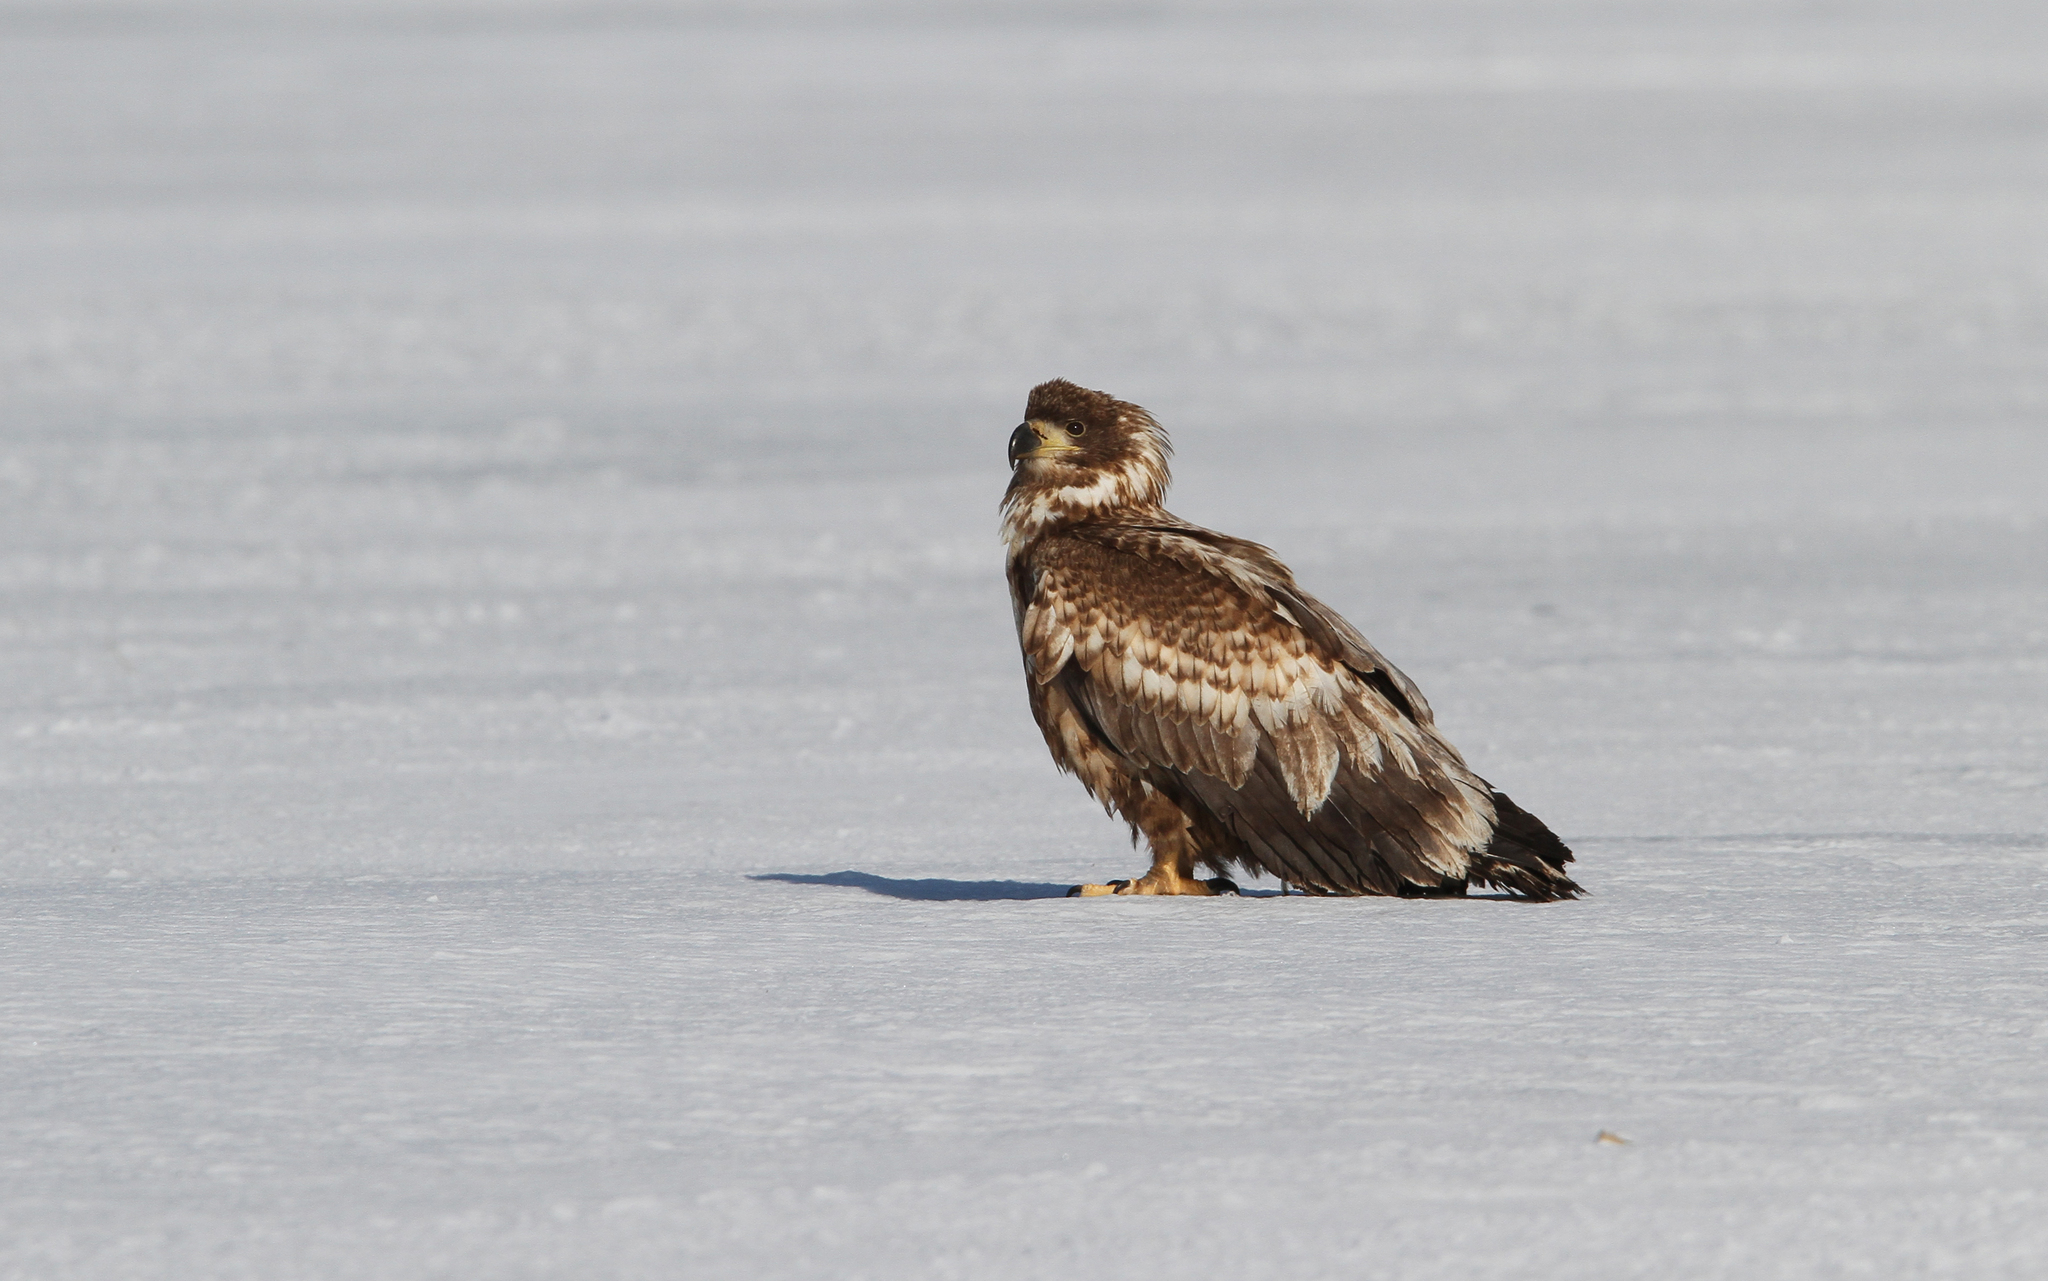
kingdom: Animalia
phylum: Chordata
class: Aves
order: Accipitriformes
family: Accipitridae
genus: Haliaeetus
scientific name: Haliaeetus albicilla
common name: White-tailed eagle
